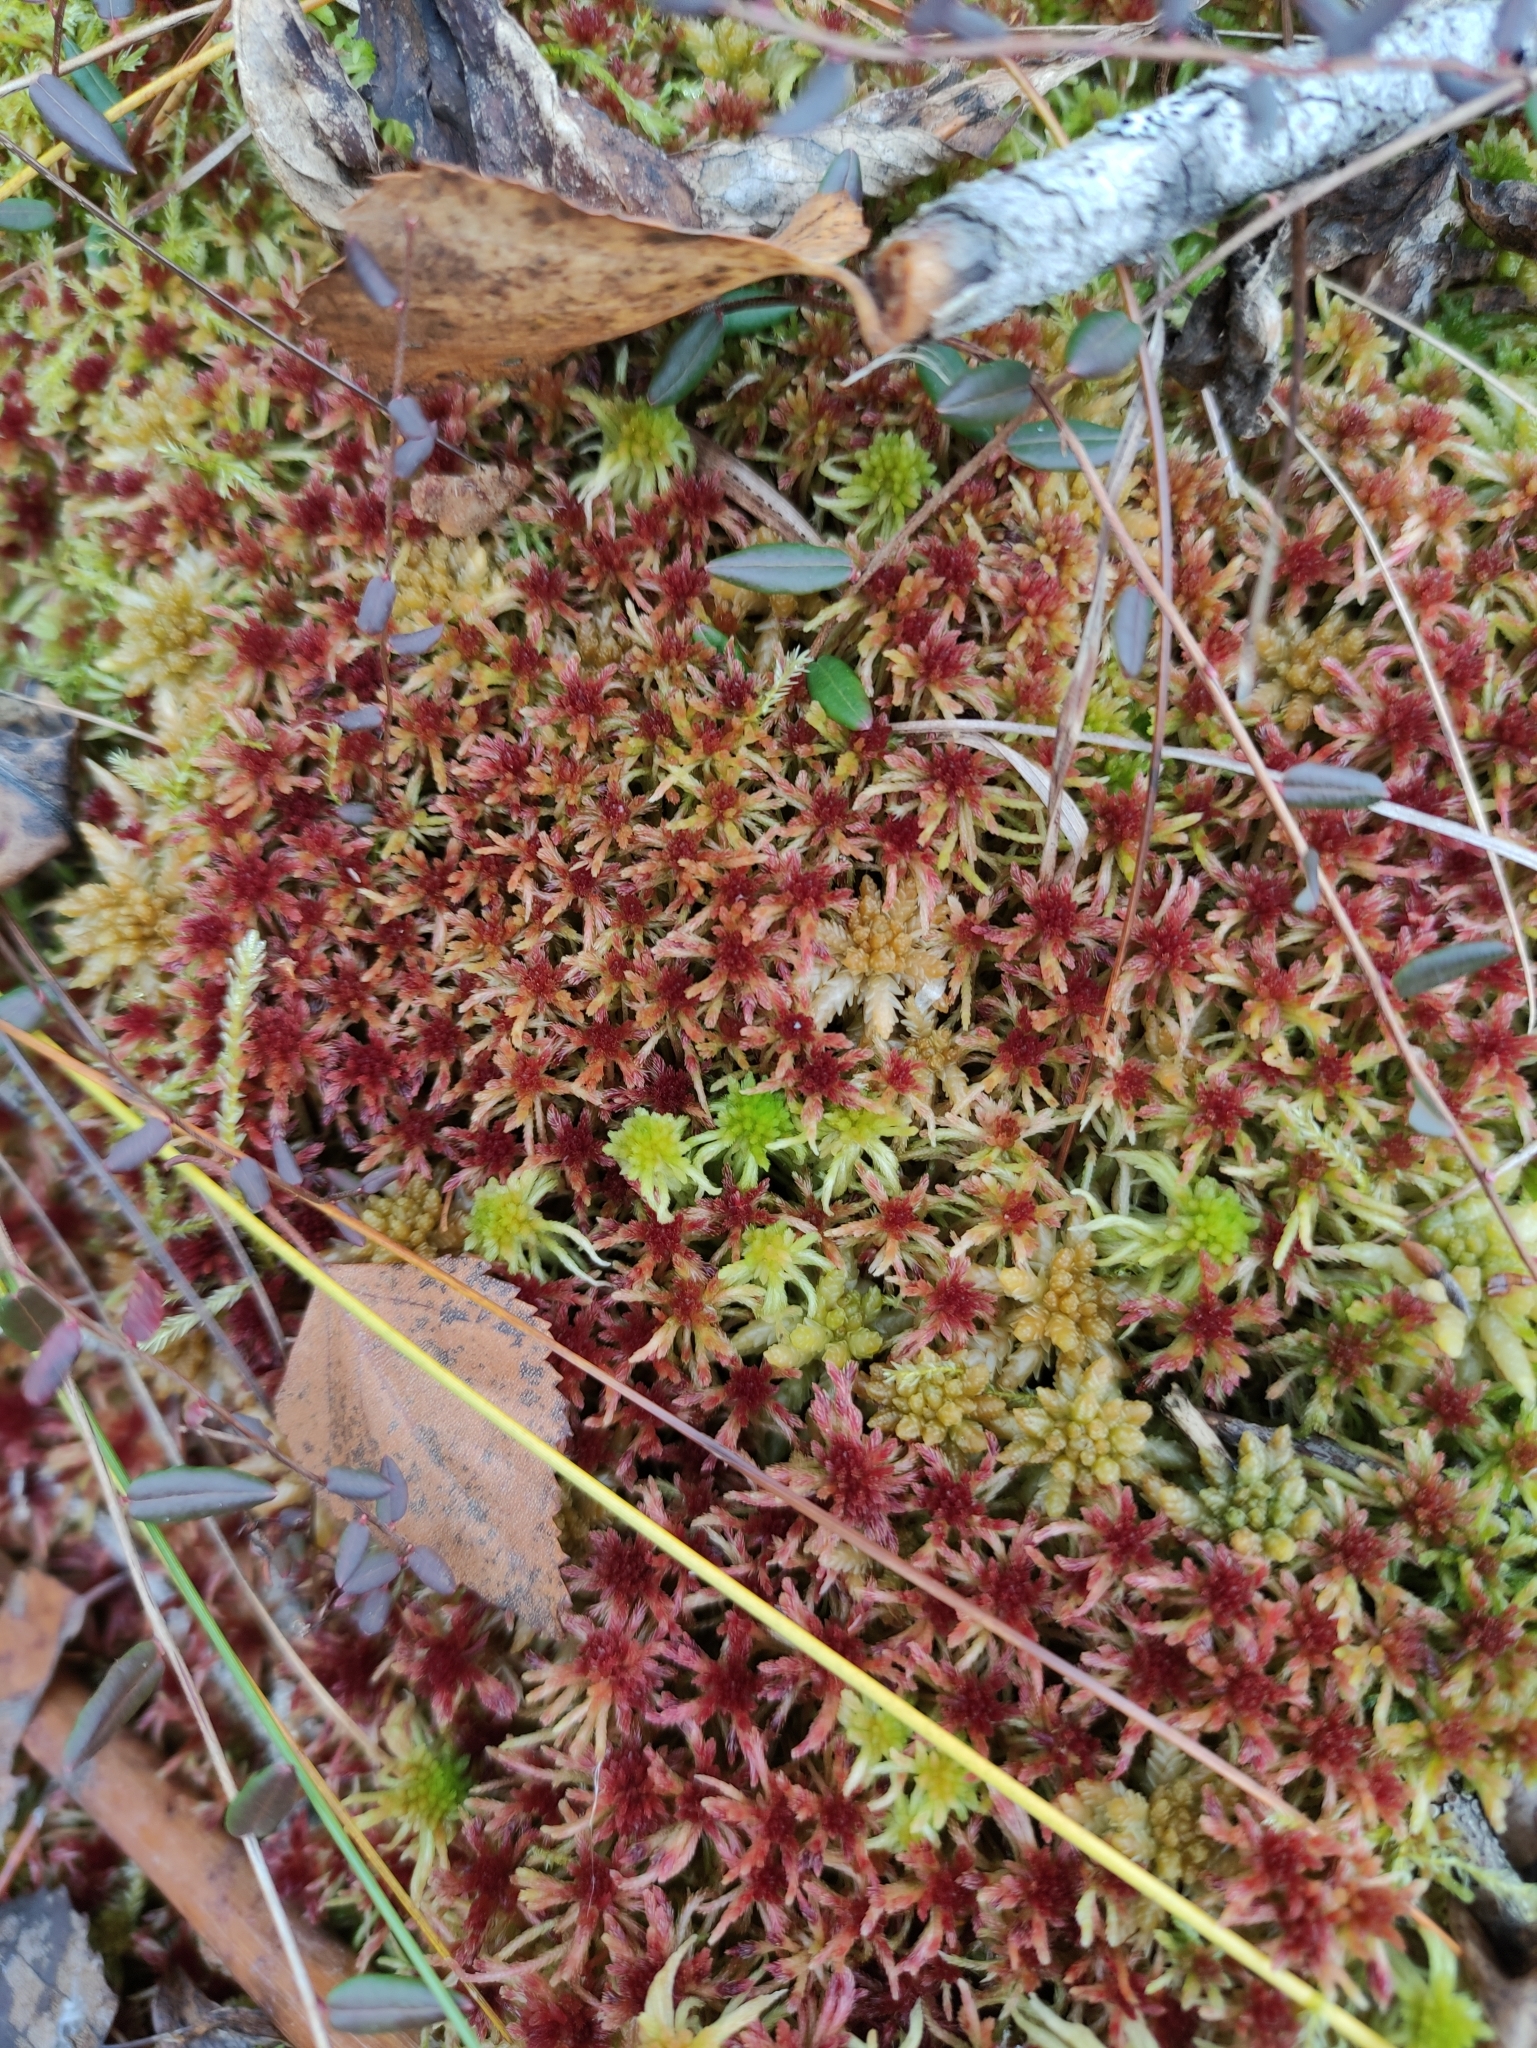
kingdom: Plantae
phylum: Bryophyta
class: Sphagnopsida
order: Sphagnales
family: Sphagnaceae
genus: Sphagnum
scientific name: Sphagnum russowii
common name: Russow's peat moss
